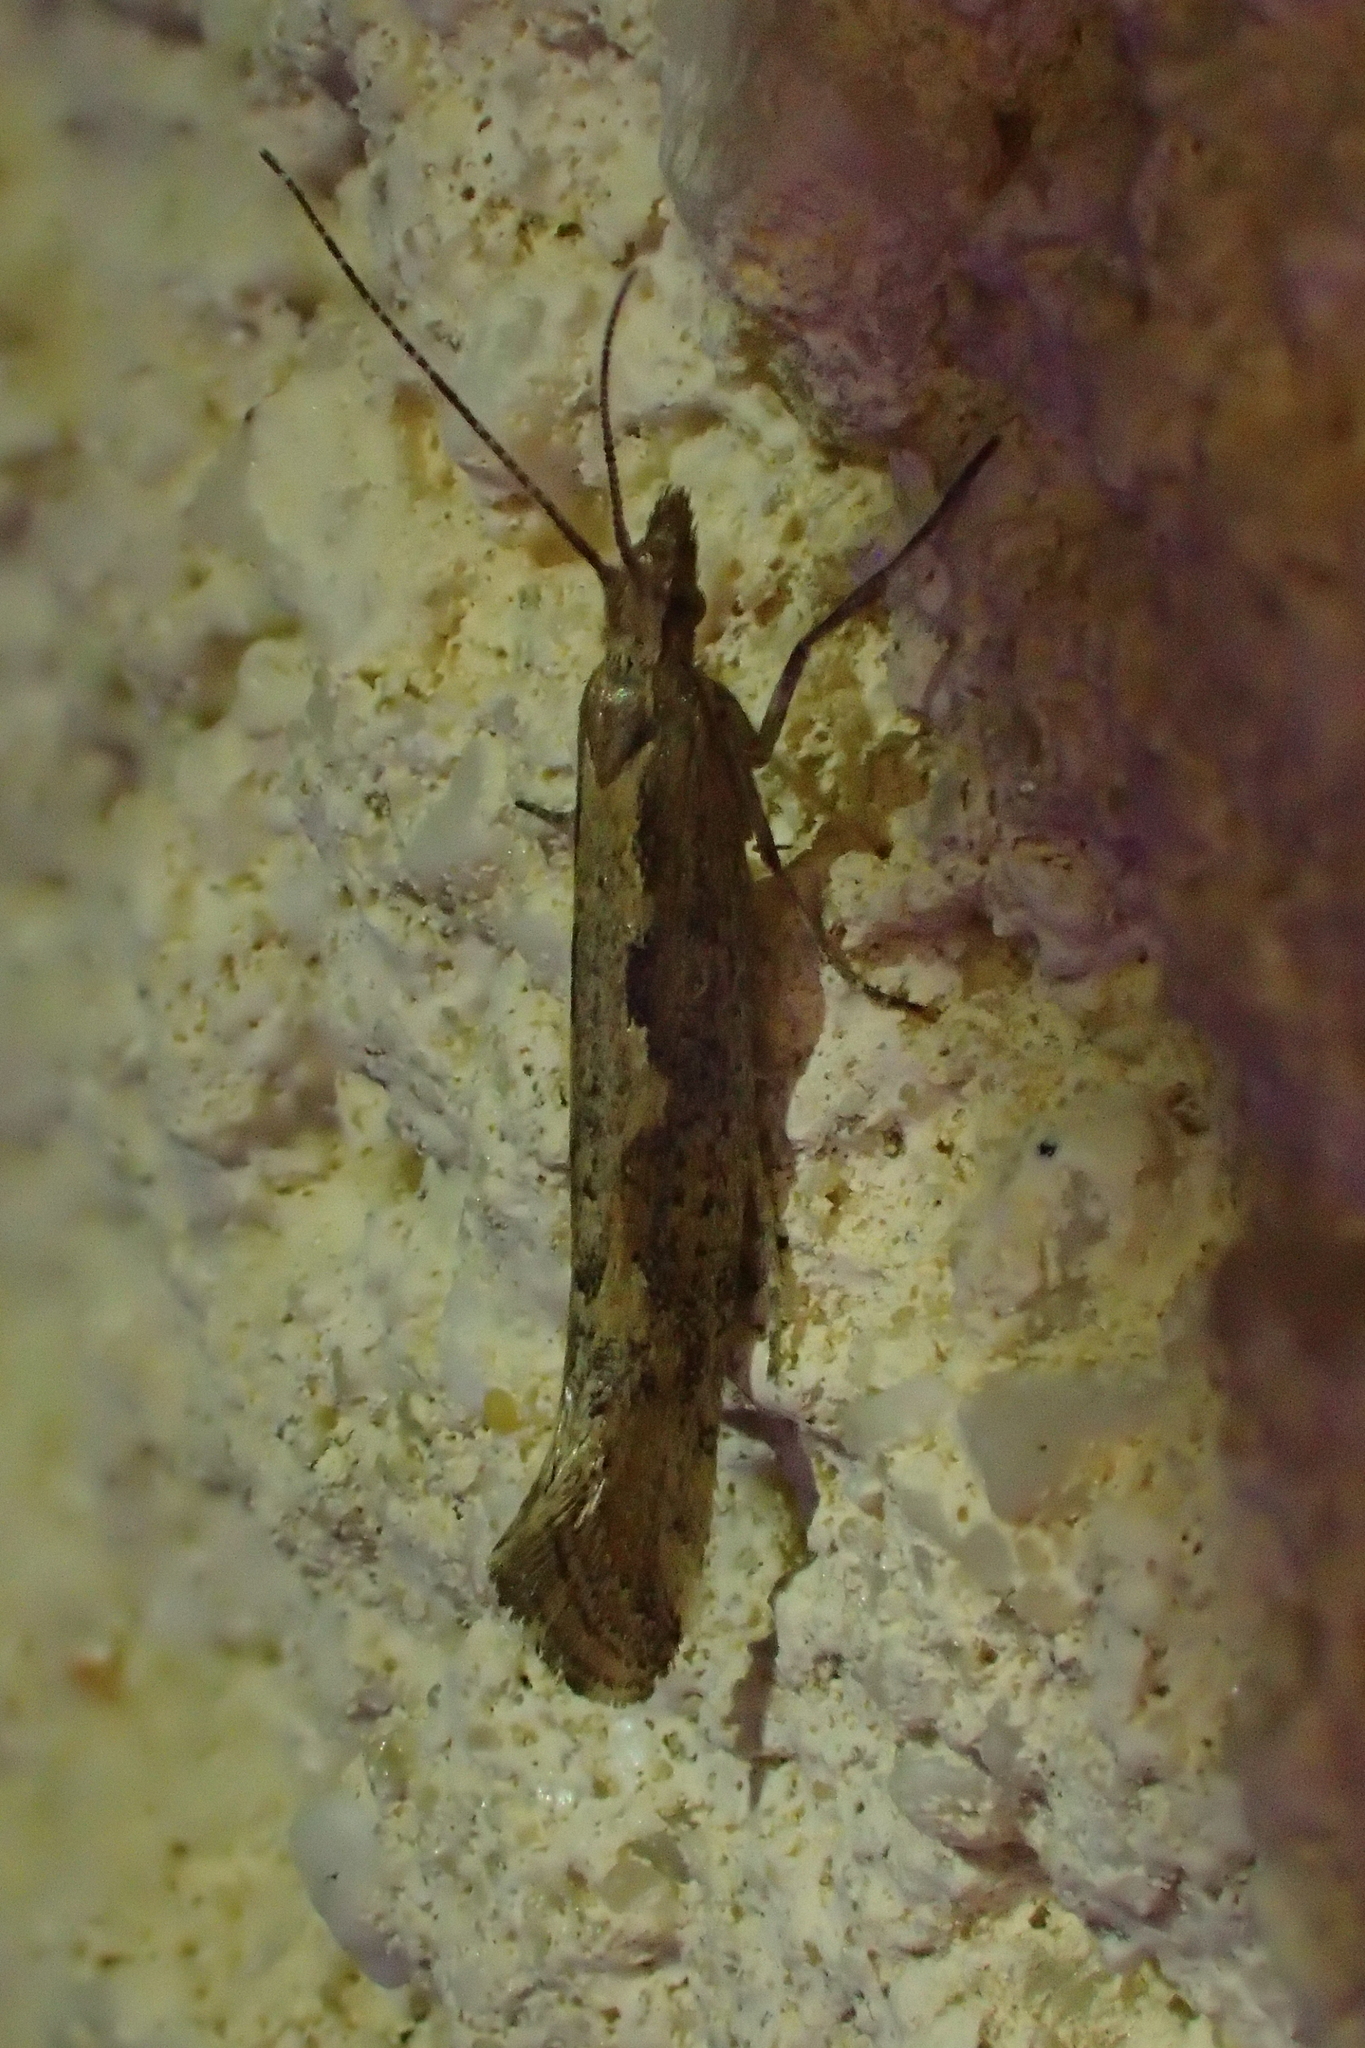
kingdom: Animalia
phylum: Arthropoda
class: Insecta
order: Lepidoptera
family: Plutellidae
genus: Plutella
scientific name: Plutella xylostella
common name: Diamond-back moth
